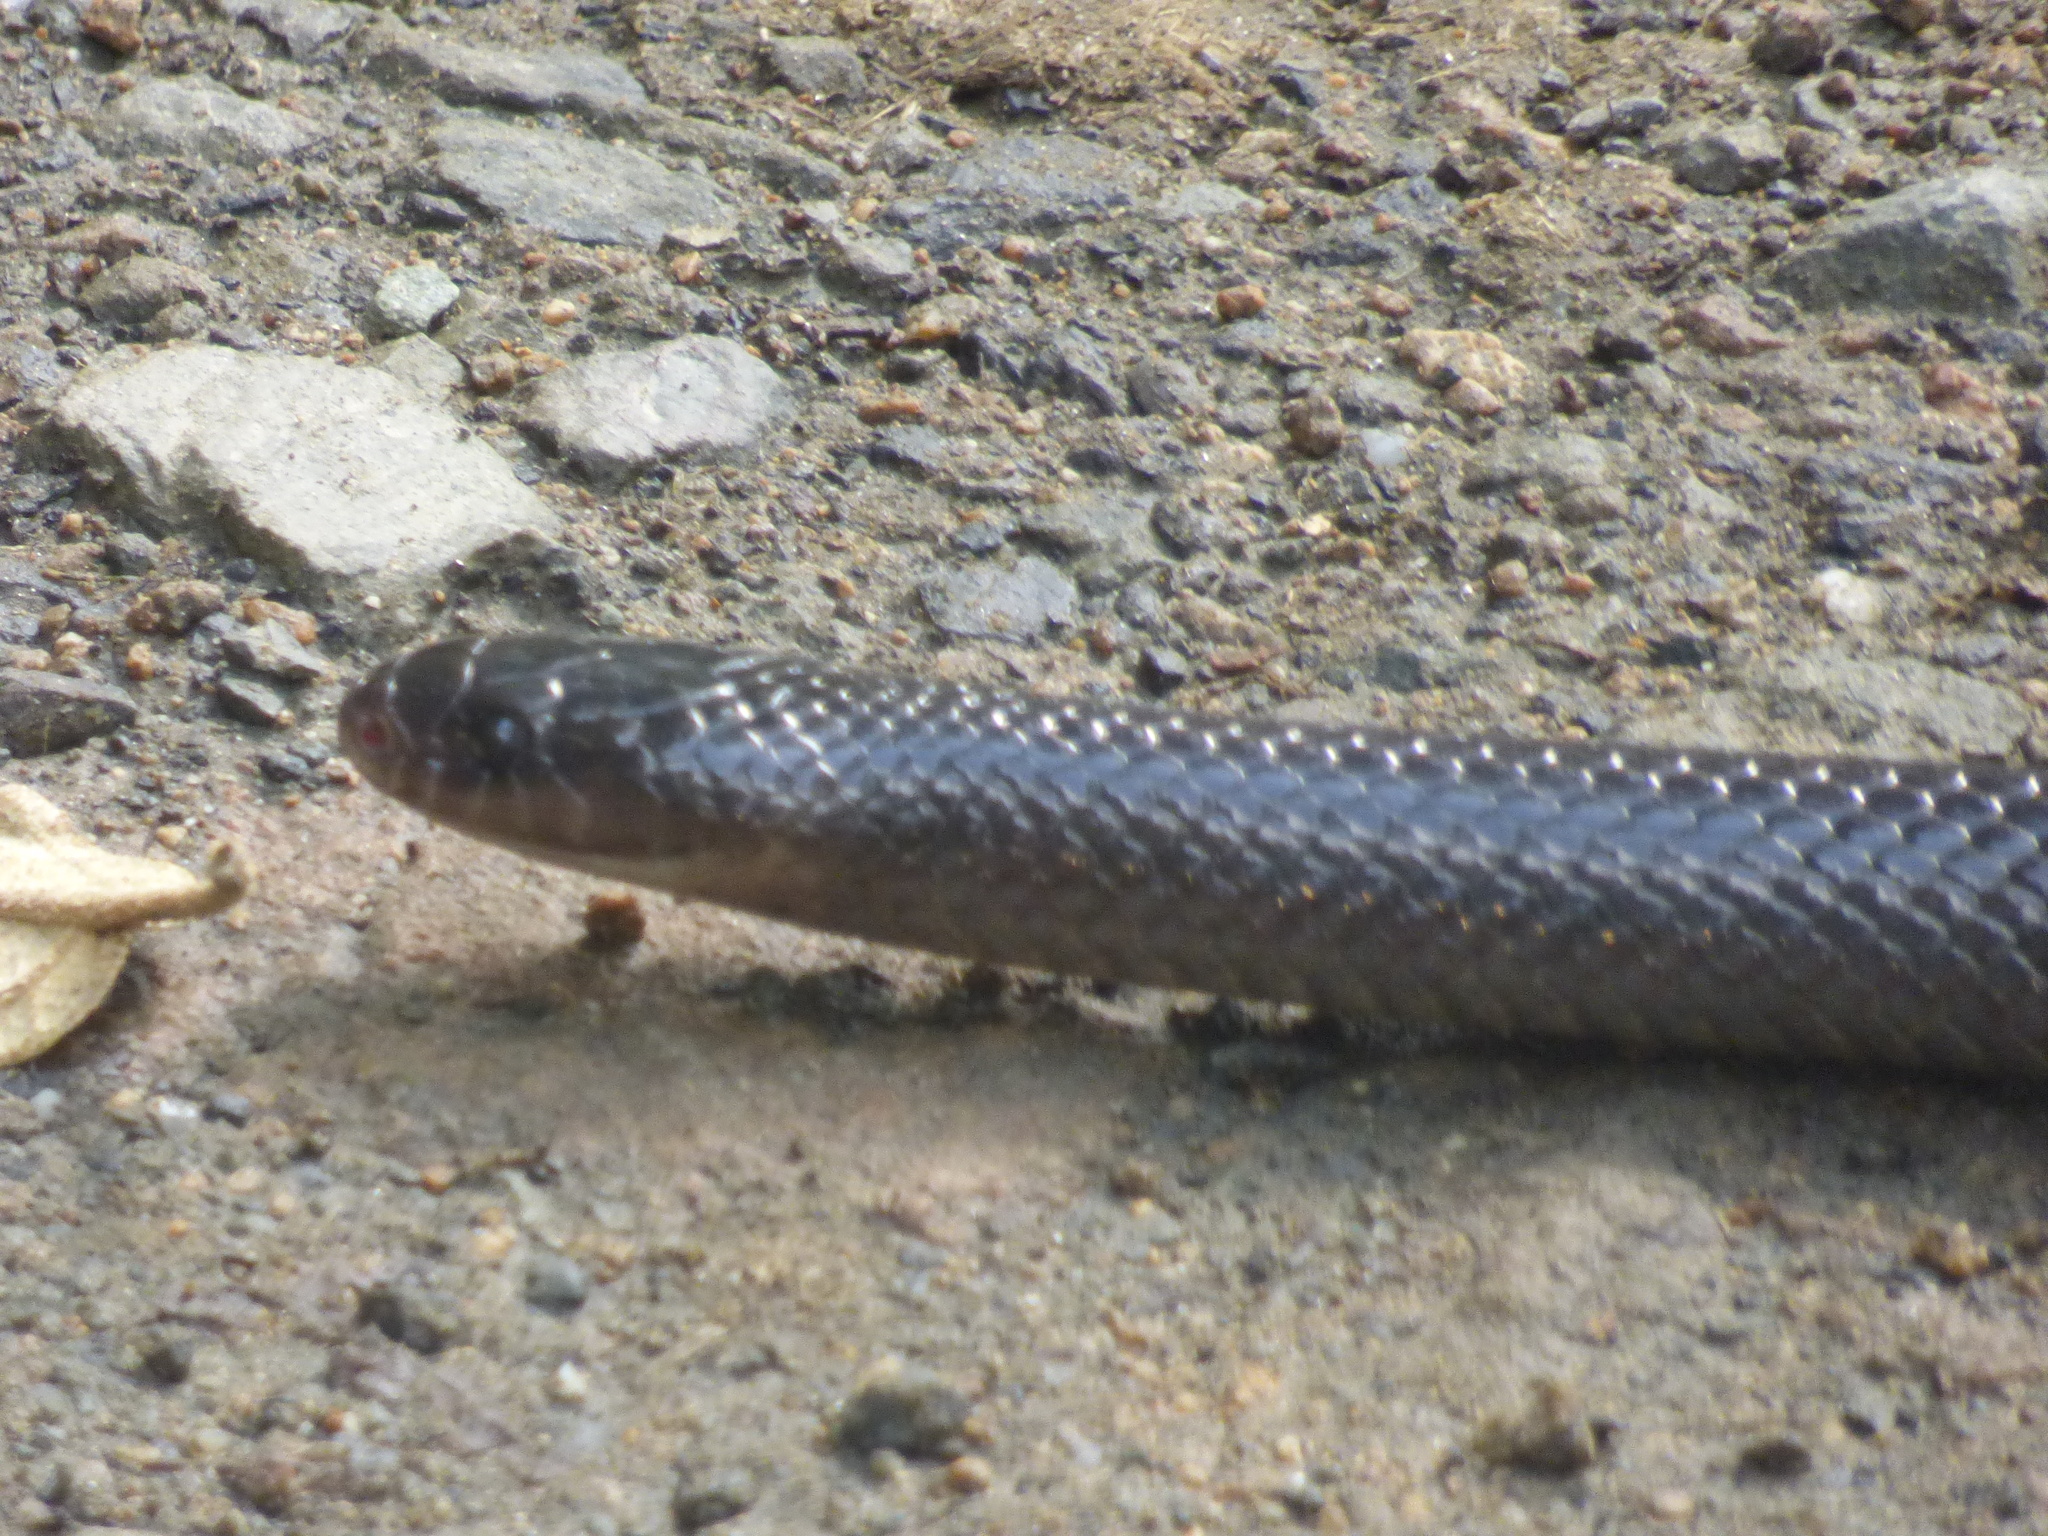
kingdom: Animalia
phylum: Chordata
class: Squamata
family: Colubridae
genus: Clelia
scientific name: Clelia equatoriana
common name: Equatorial mussurana
